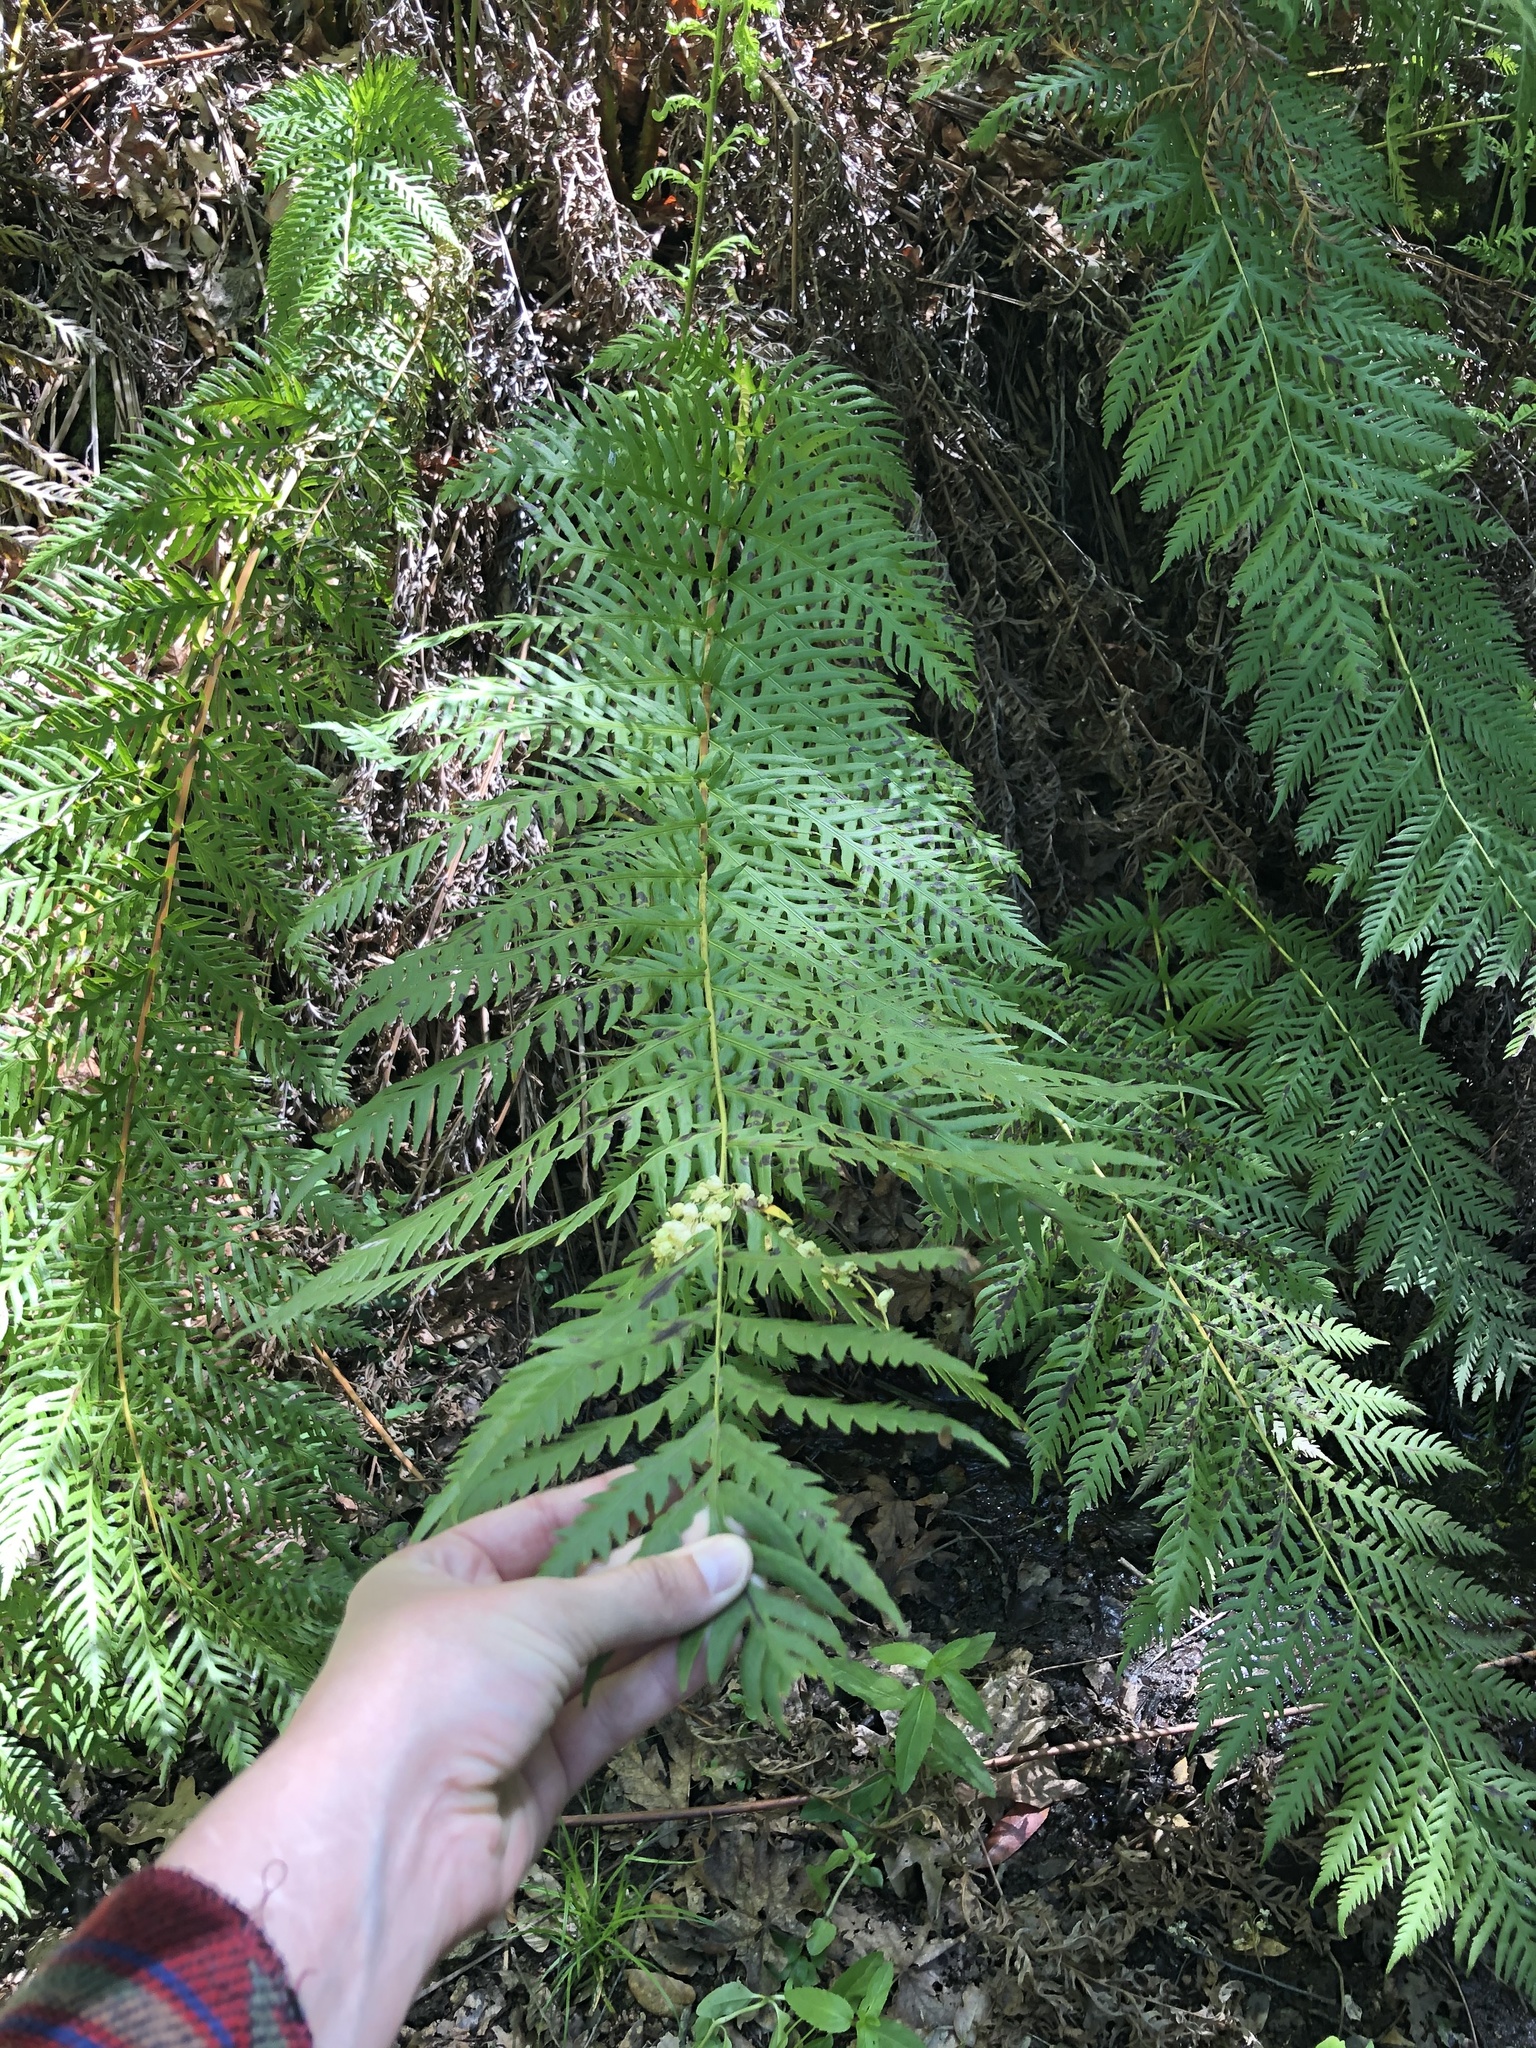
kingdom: Plantae
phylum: Tracheophyta
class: Polypodiopsida
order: Polypodiales
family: Blechnaceae
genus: Woodwardia
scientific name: Woodwardia fimbriata
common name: Giant chain fern
